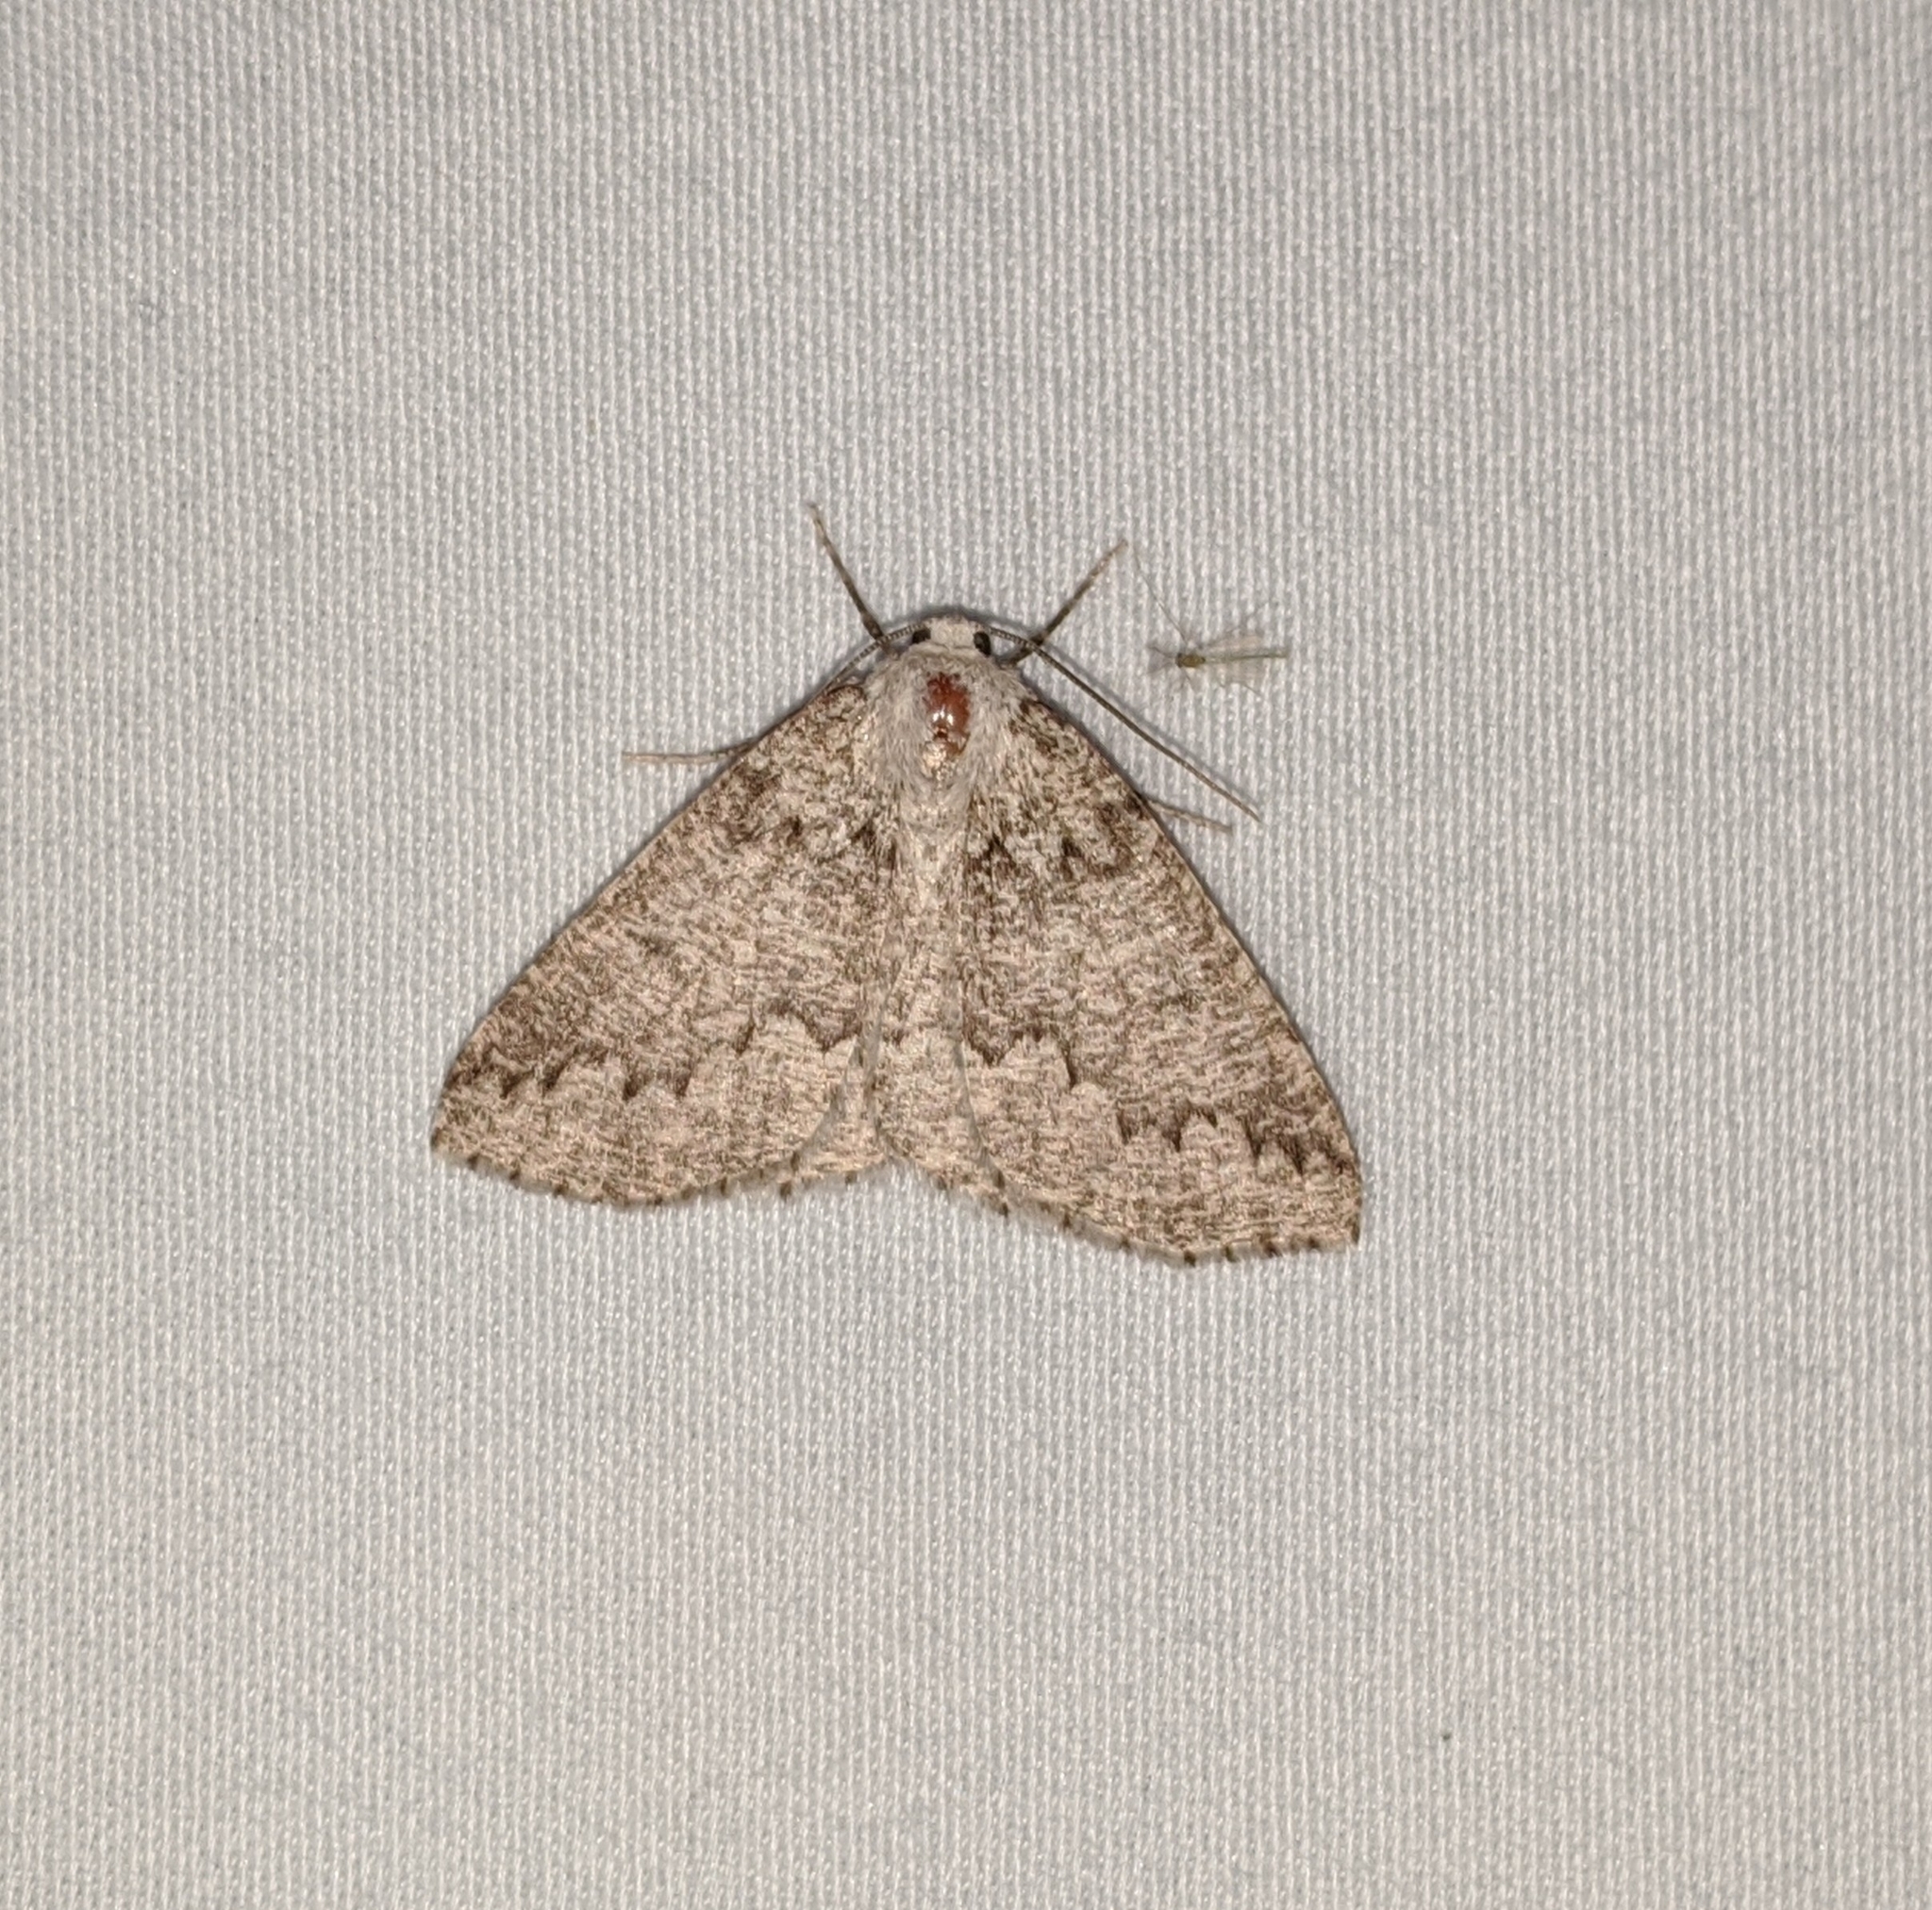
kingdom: Animalia
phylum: Arthropoda
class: Insecta
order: Lepidoptera
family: Geometridae
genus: Sabulodes
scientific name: Sabulodes
